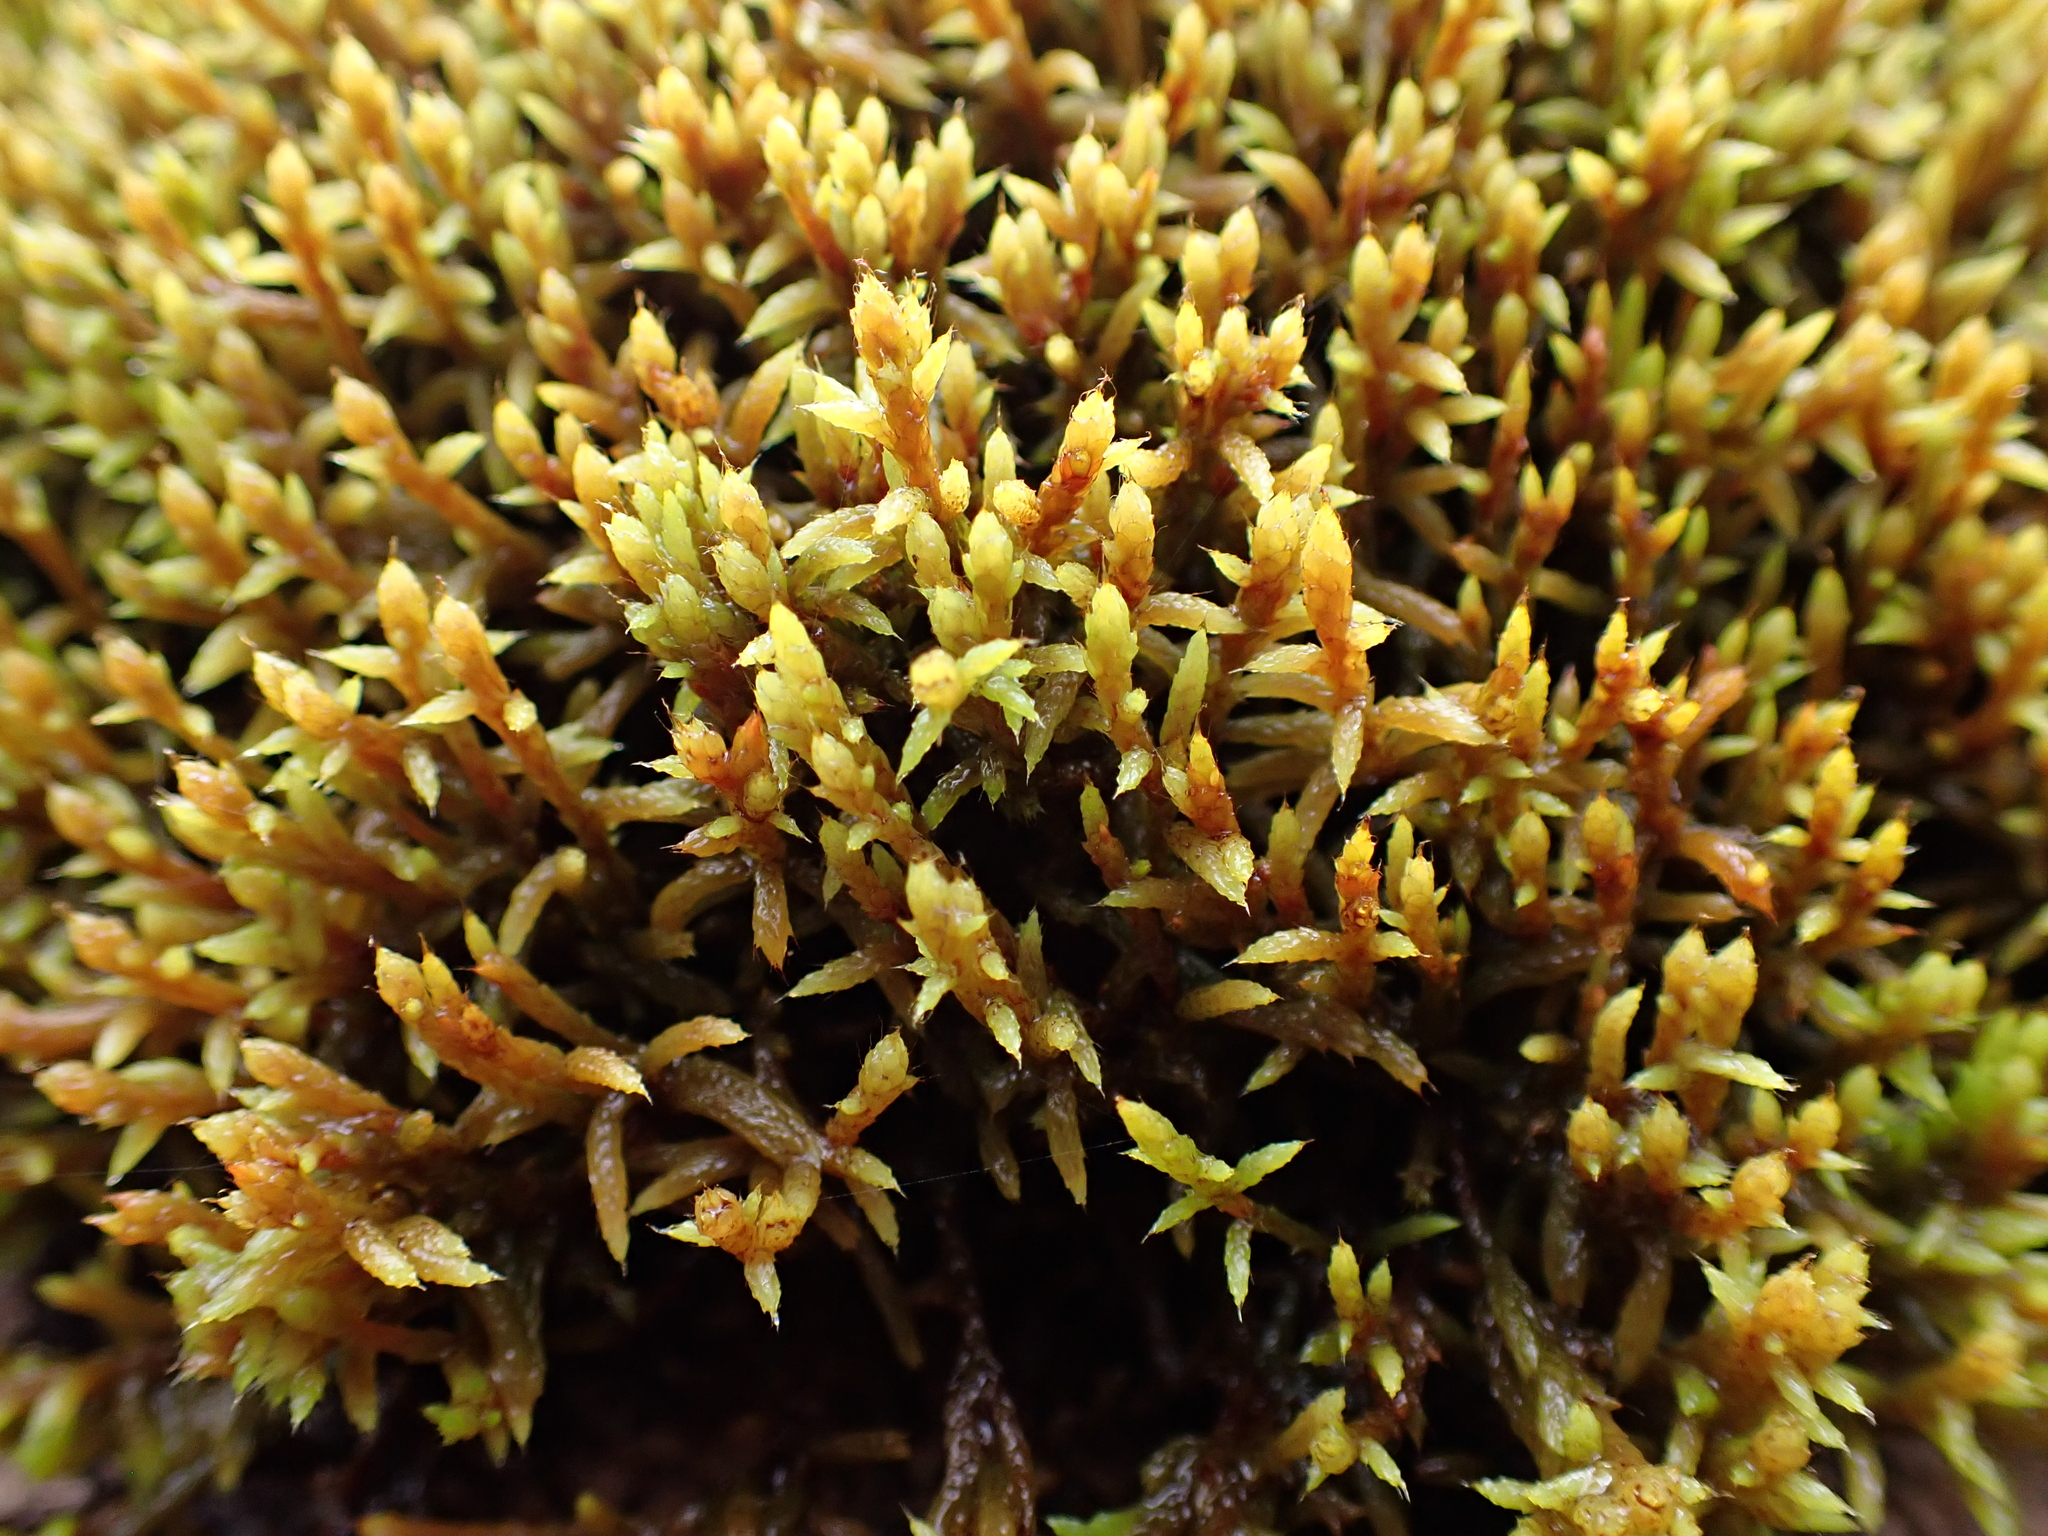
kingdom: Plantae
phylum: Bryophyta
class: Bryopsida
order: Hedwigiales
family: Hedwigiaceae
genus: Rhacocarpus
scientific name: Rhacocarpus purpurascens
